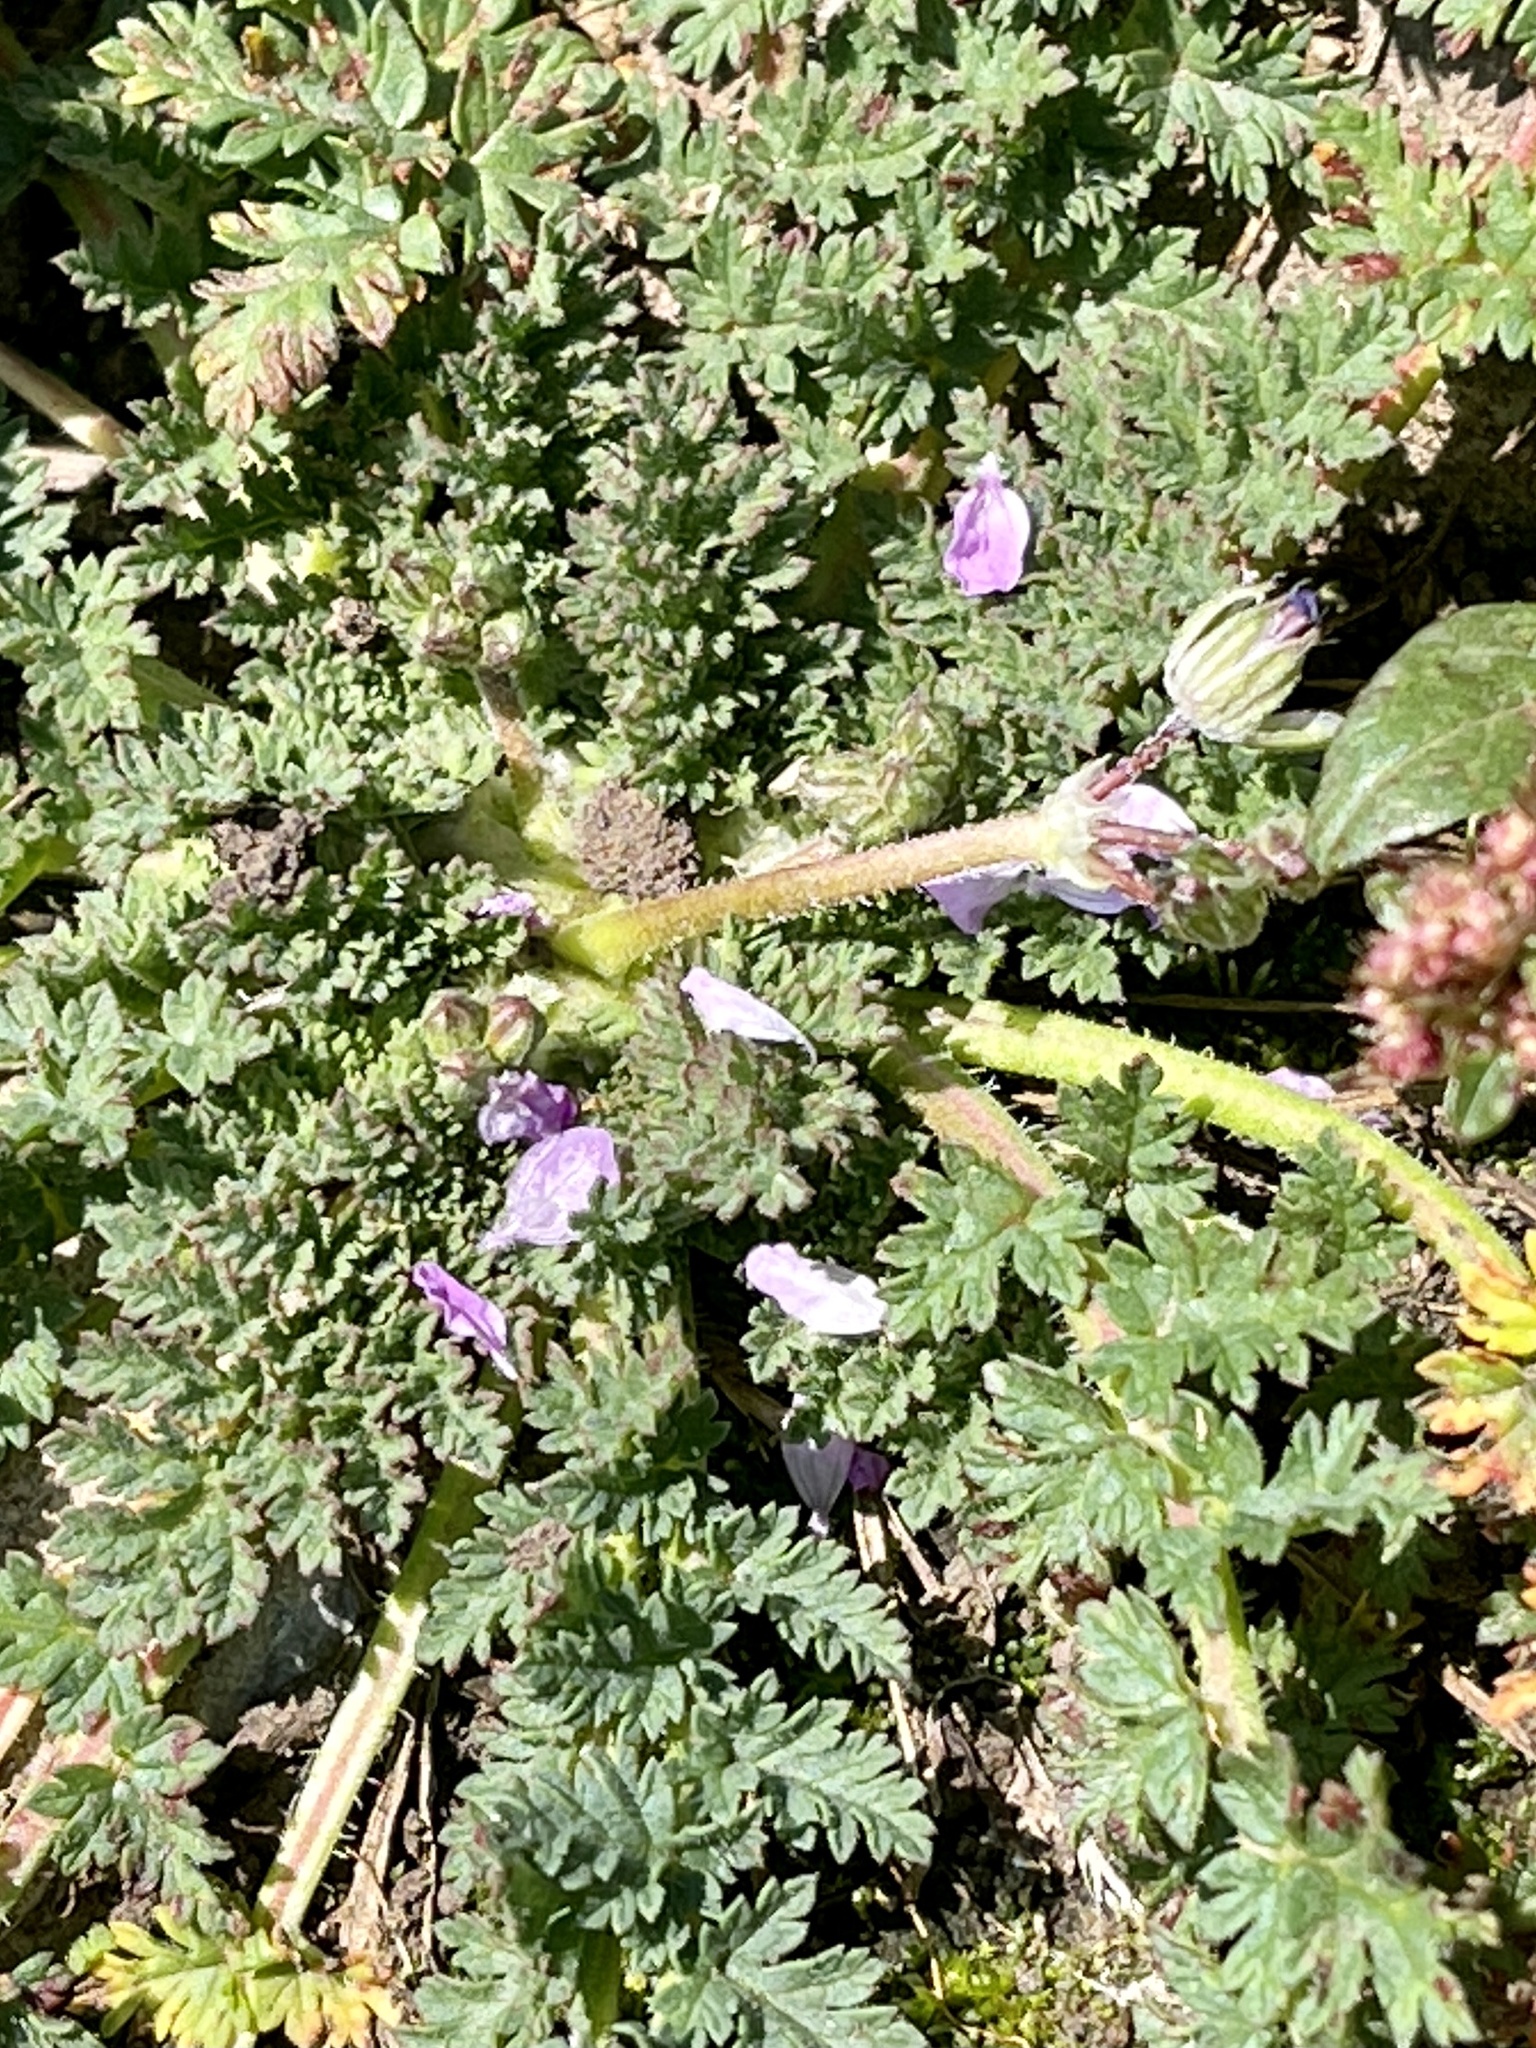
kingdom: Plantae
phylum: Tracheophyta
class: Magnoliopsida
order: Geraniales
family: Geraniaceae
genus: Erodium
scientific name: Erodium cicutarium
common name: Common stork's-bill
